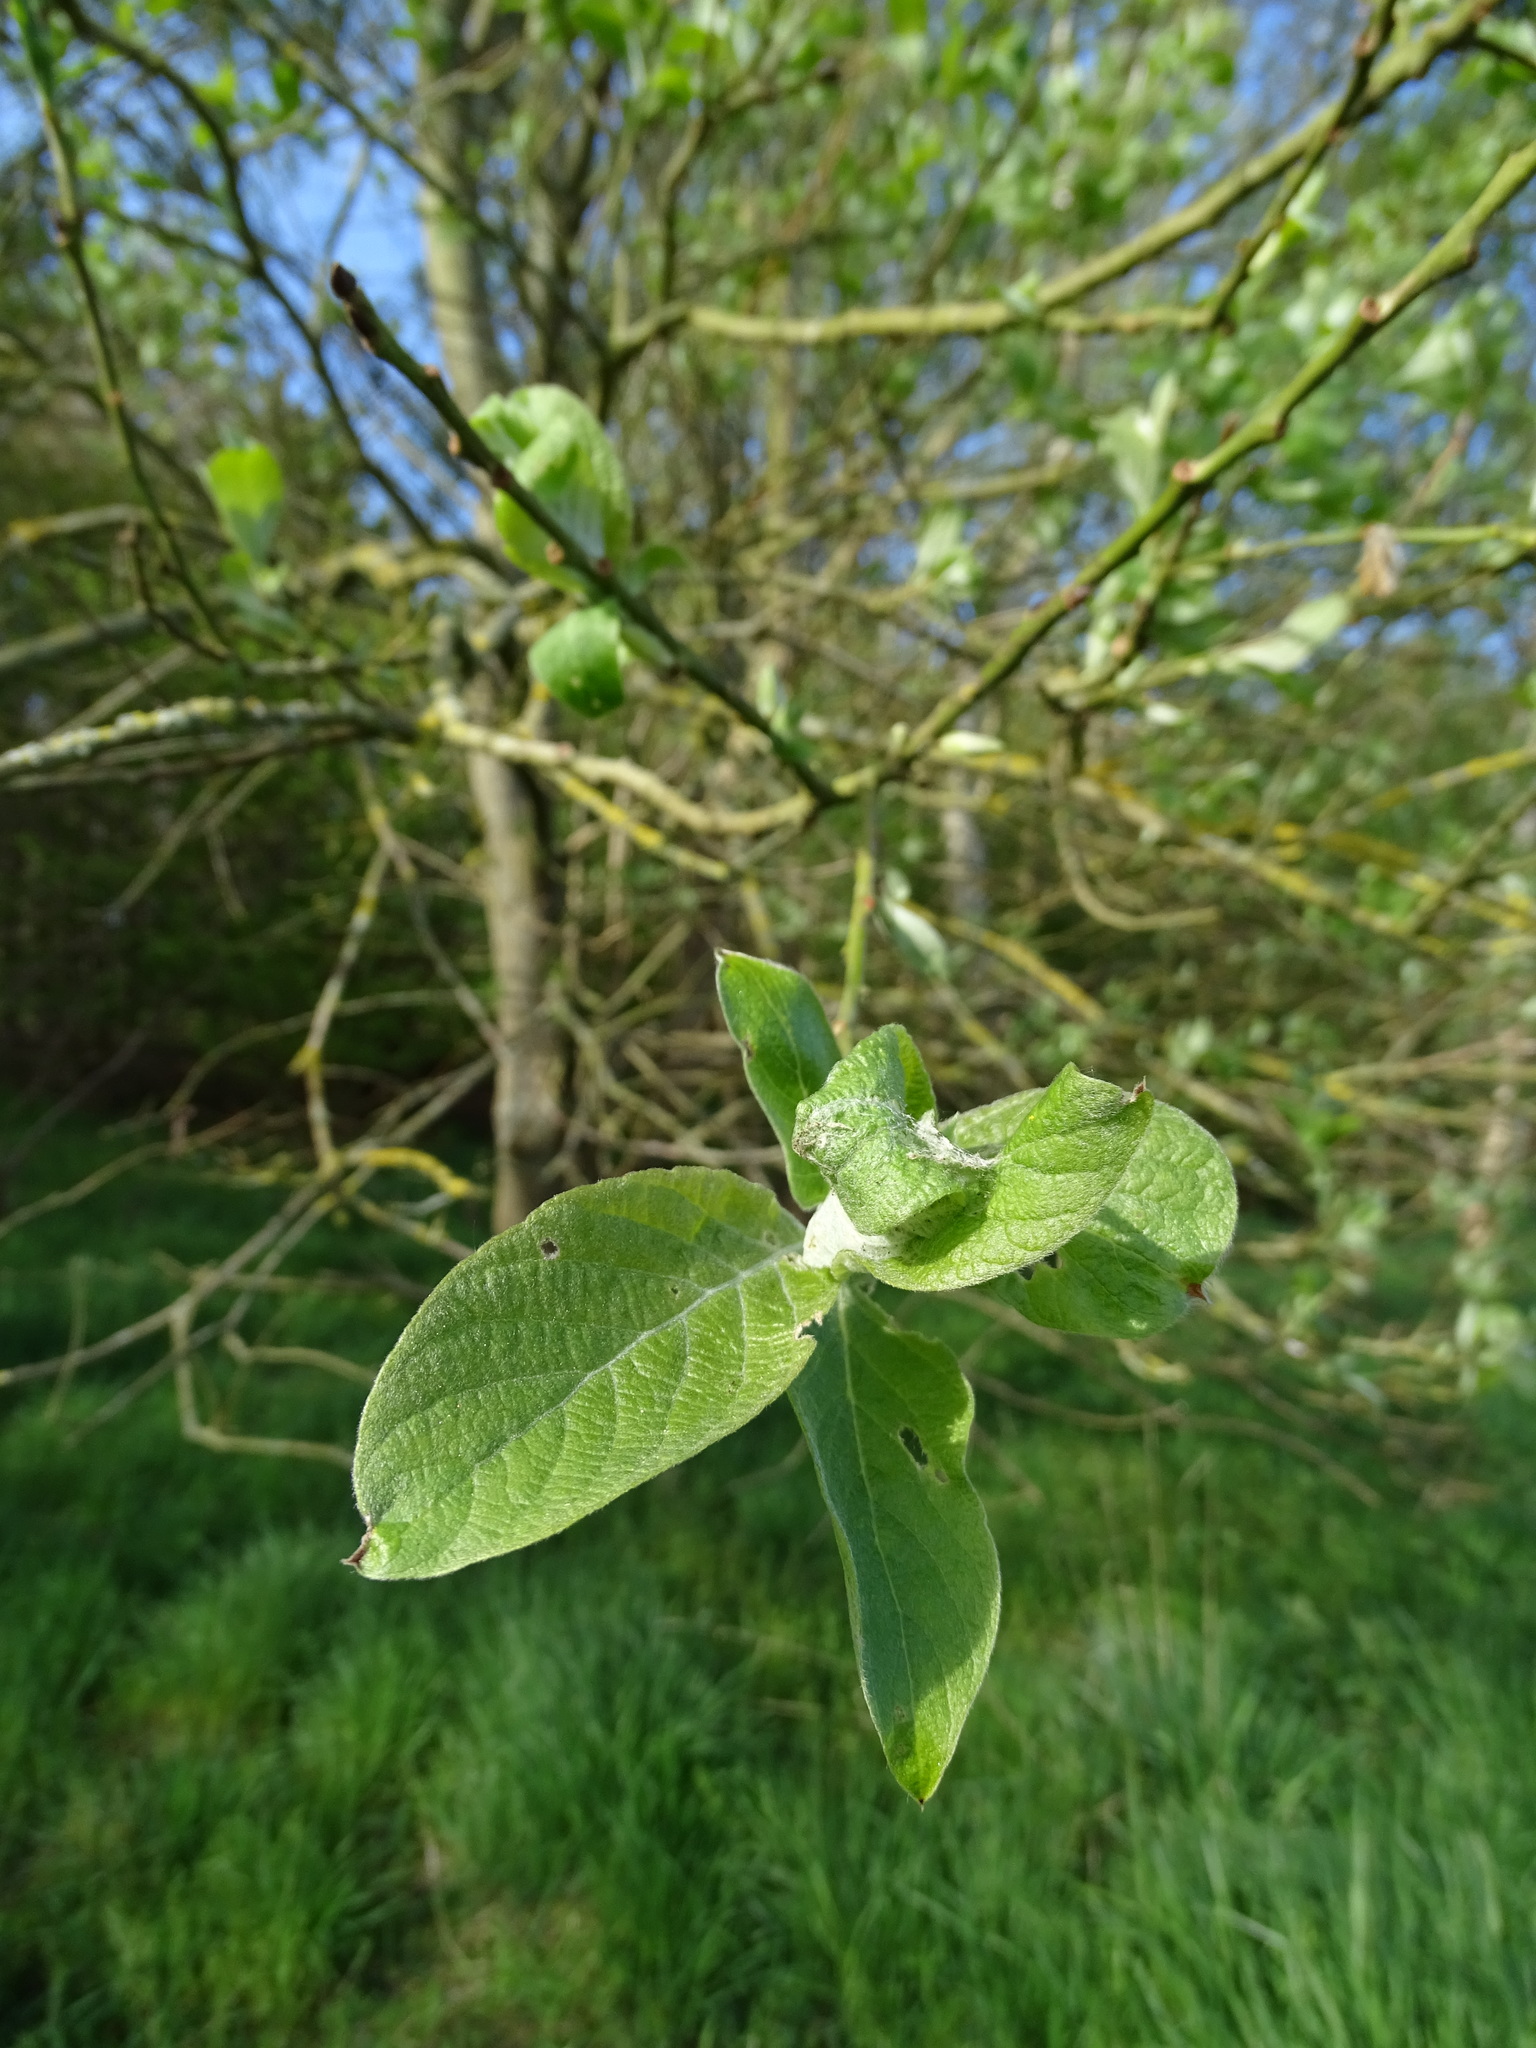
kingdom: Plantae
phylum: Tracheophyta
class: Magnoliopsida
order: Malpighiales
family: Salicaceae
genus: Salix
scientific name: Salix caprea
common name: Goat willow
